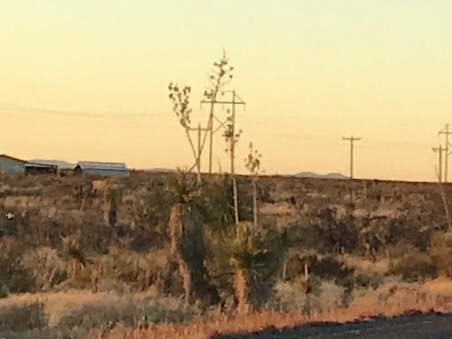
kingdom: Plantae
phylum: Tracheophyta
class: Liliopsida
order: Asparagales
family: Asparagaceae
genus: Yucca
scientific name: Yucca elata
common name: Palmella
